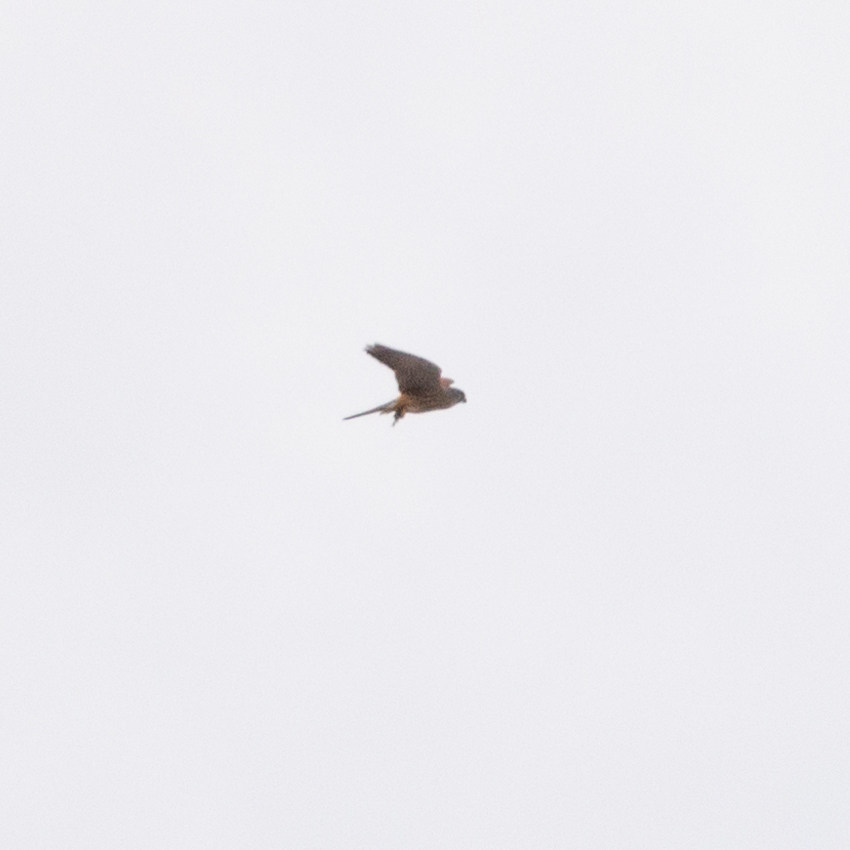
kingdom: Animalia
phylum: Chordata
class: Aves
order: Falconiformes
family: Falconidae
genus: Falco
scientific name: Falco tinnunculus
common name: Common kestrel
